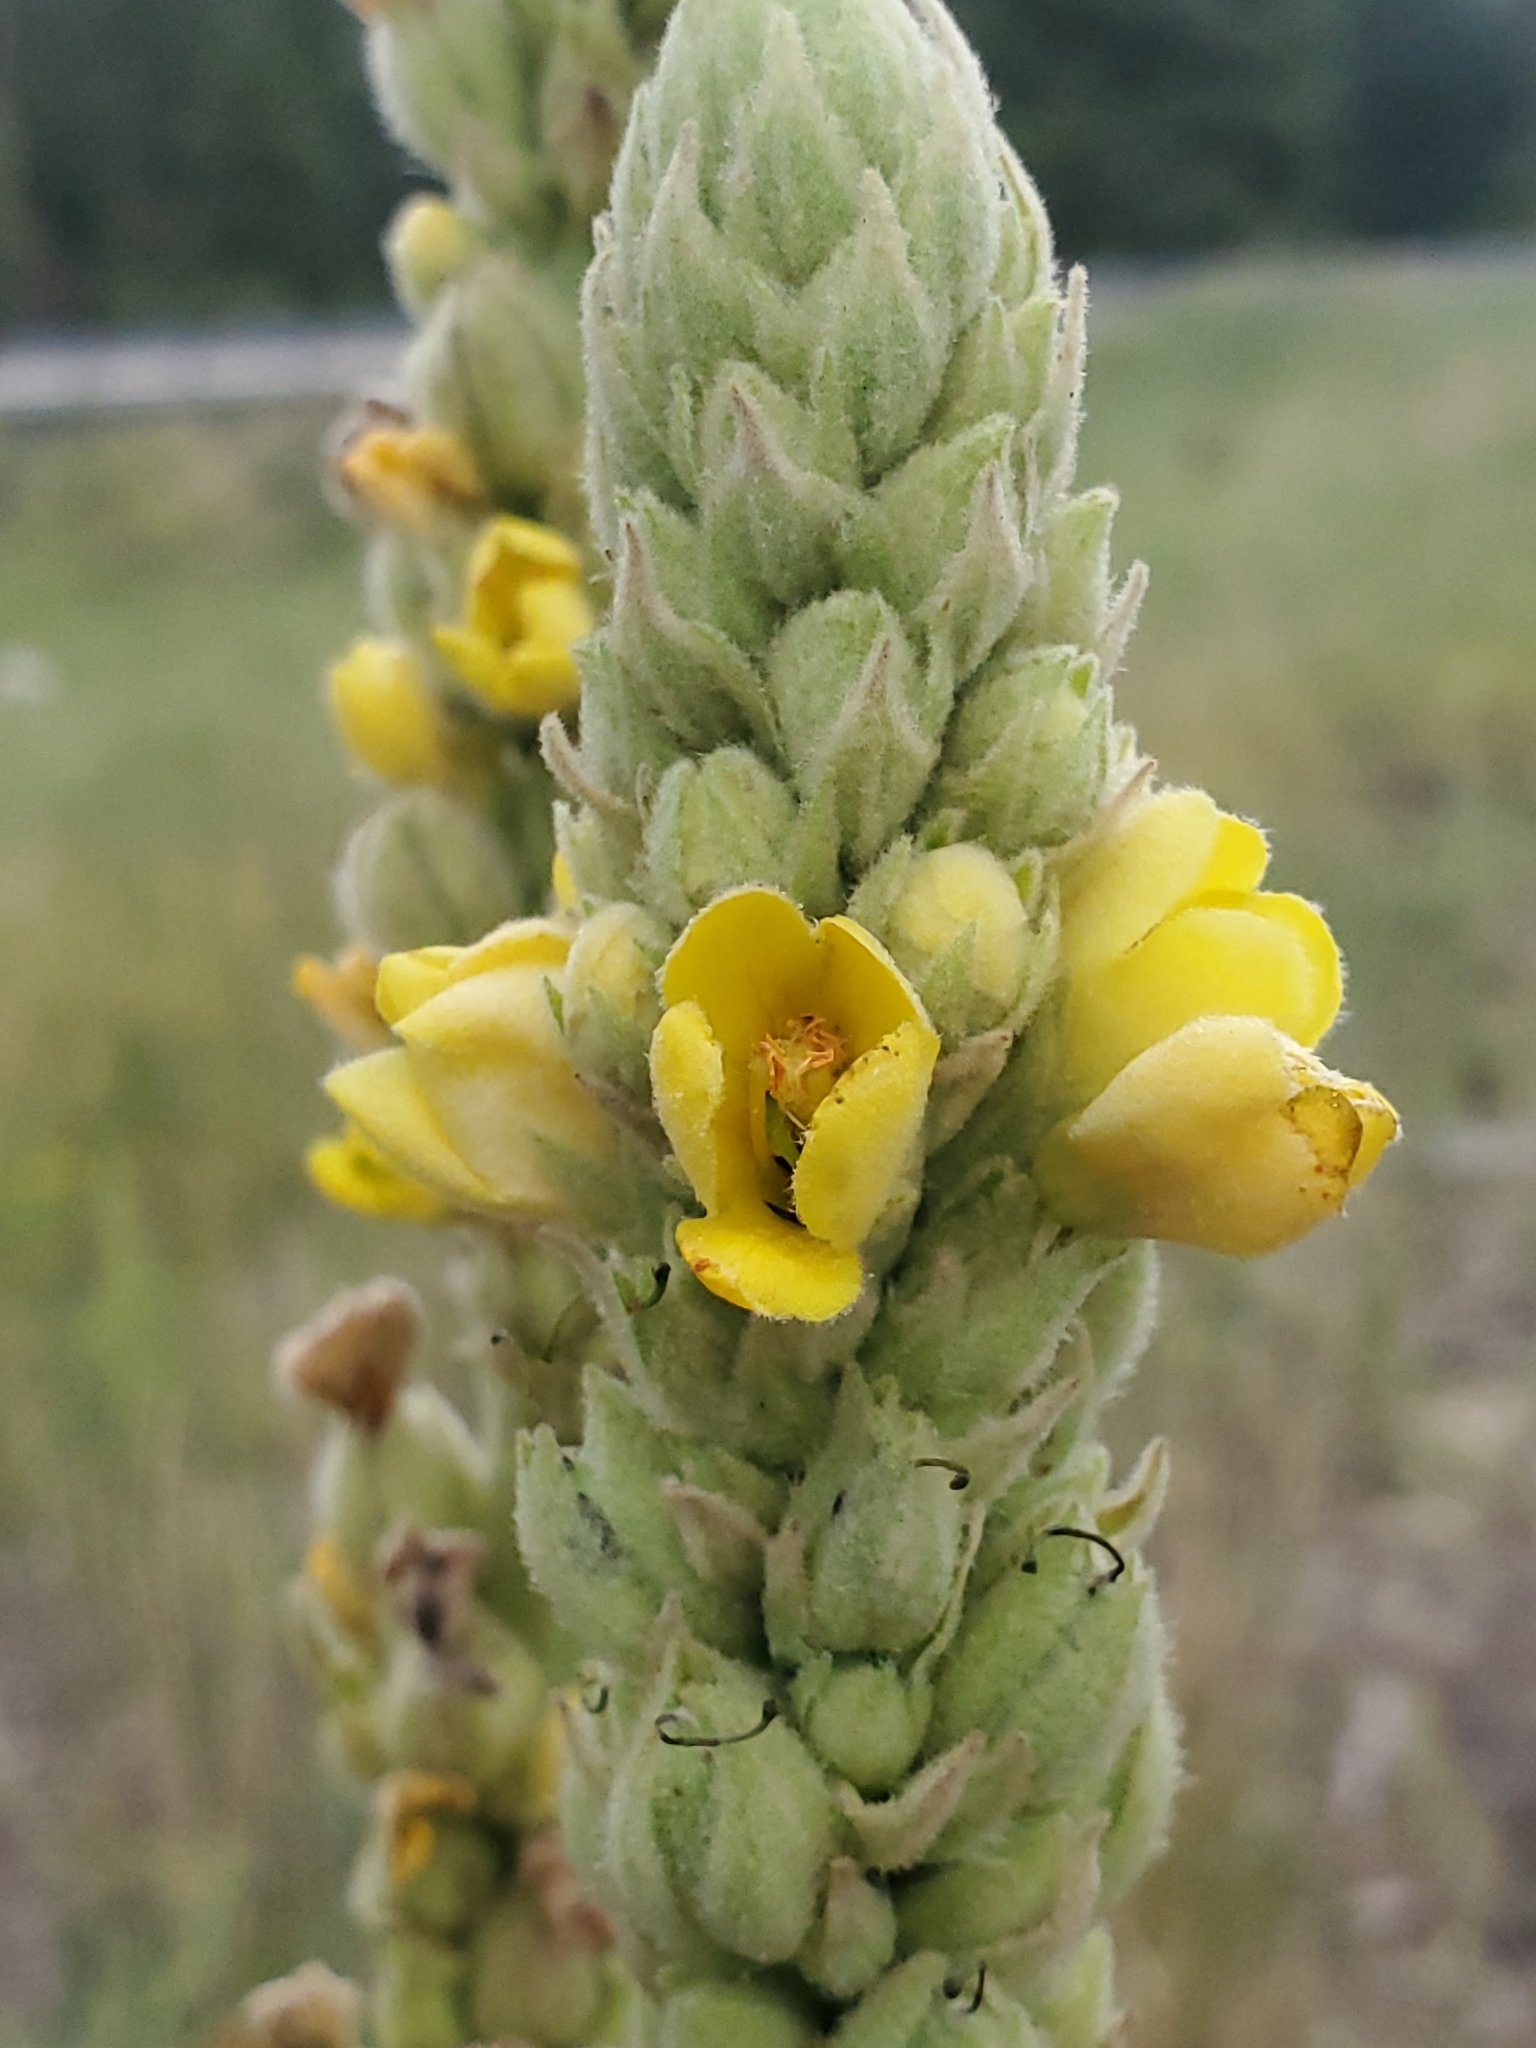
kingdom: Plantae
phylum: Tracheophyta
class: Magnoliopsida
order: Lamiales
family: Scrophulariaceae
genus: Verbascum
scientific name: Verbascum thapsus
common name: Common mullein
